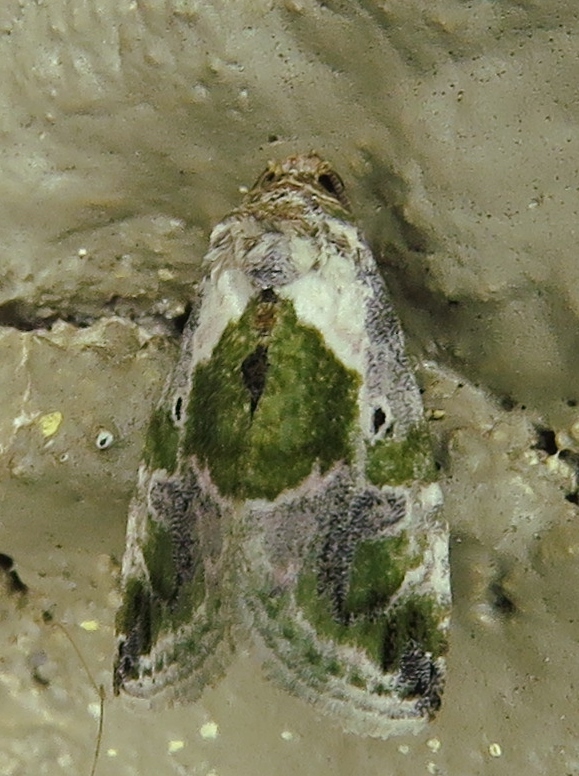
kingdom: Animalia
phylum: Arthropoda
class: Insecta
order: Lepidoptera
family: Noctuidae
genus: Maliattha
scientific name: Maliattha synochitis
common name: Black-dotted glyph
